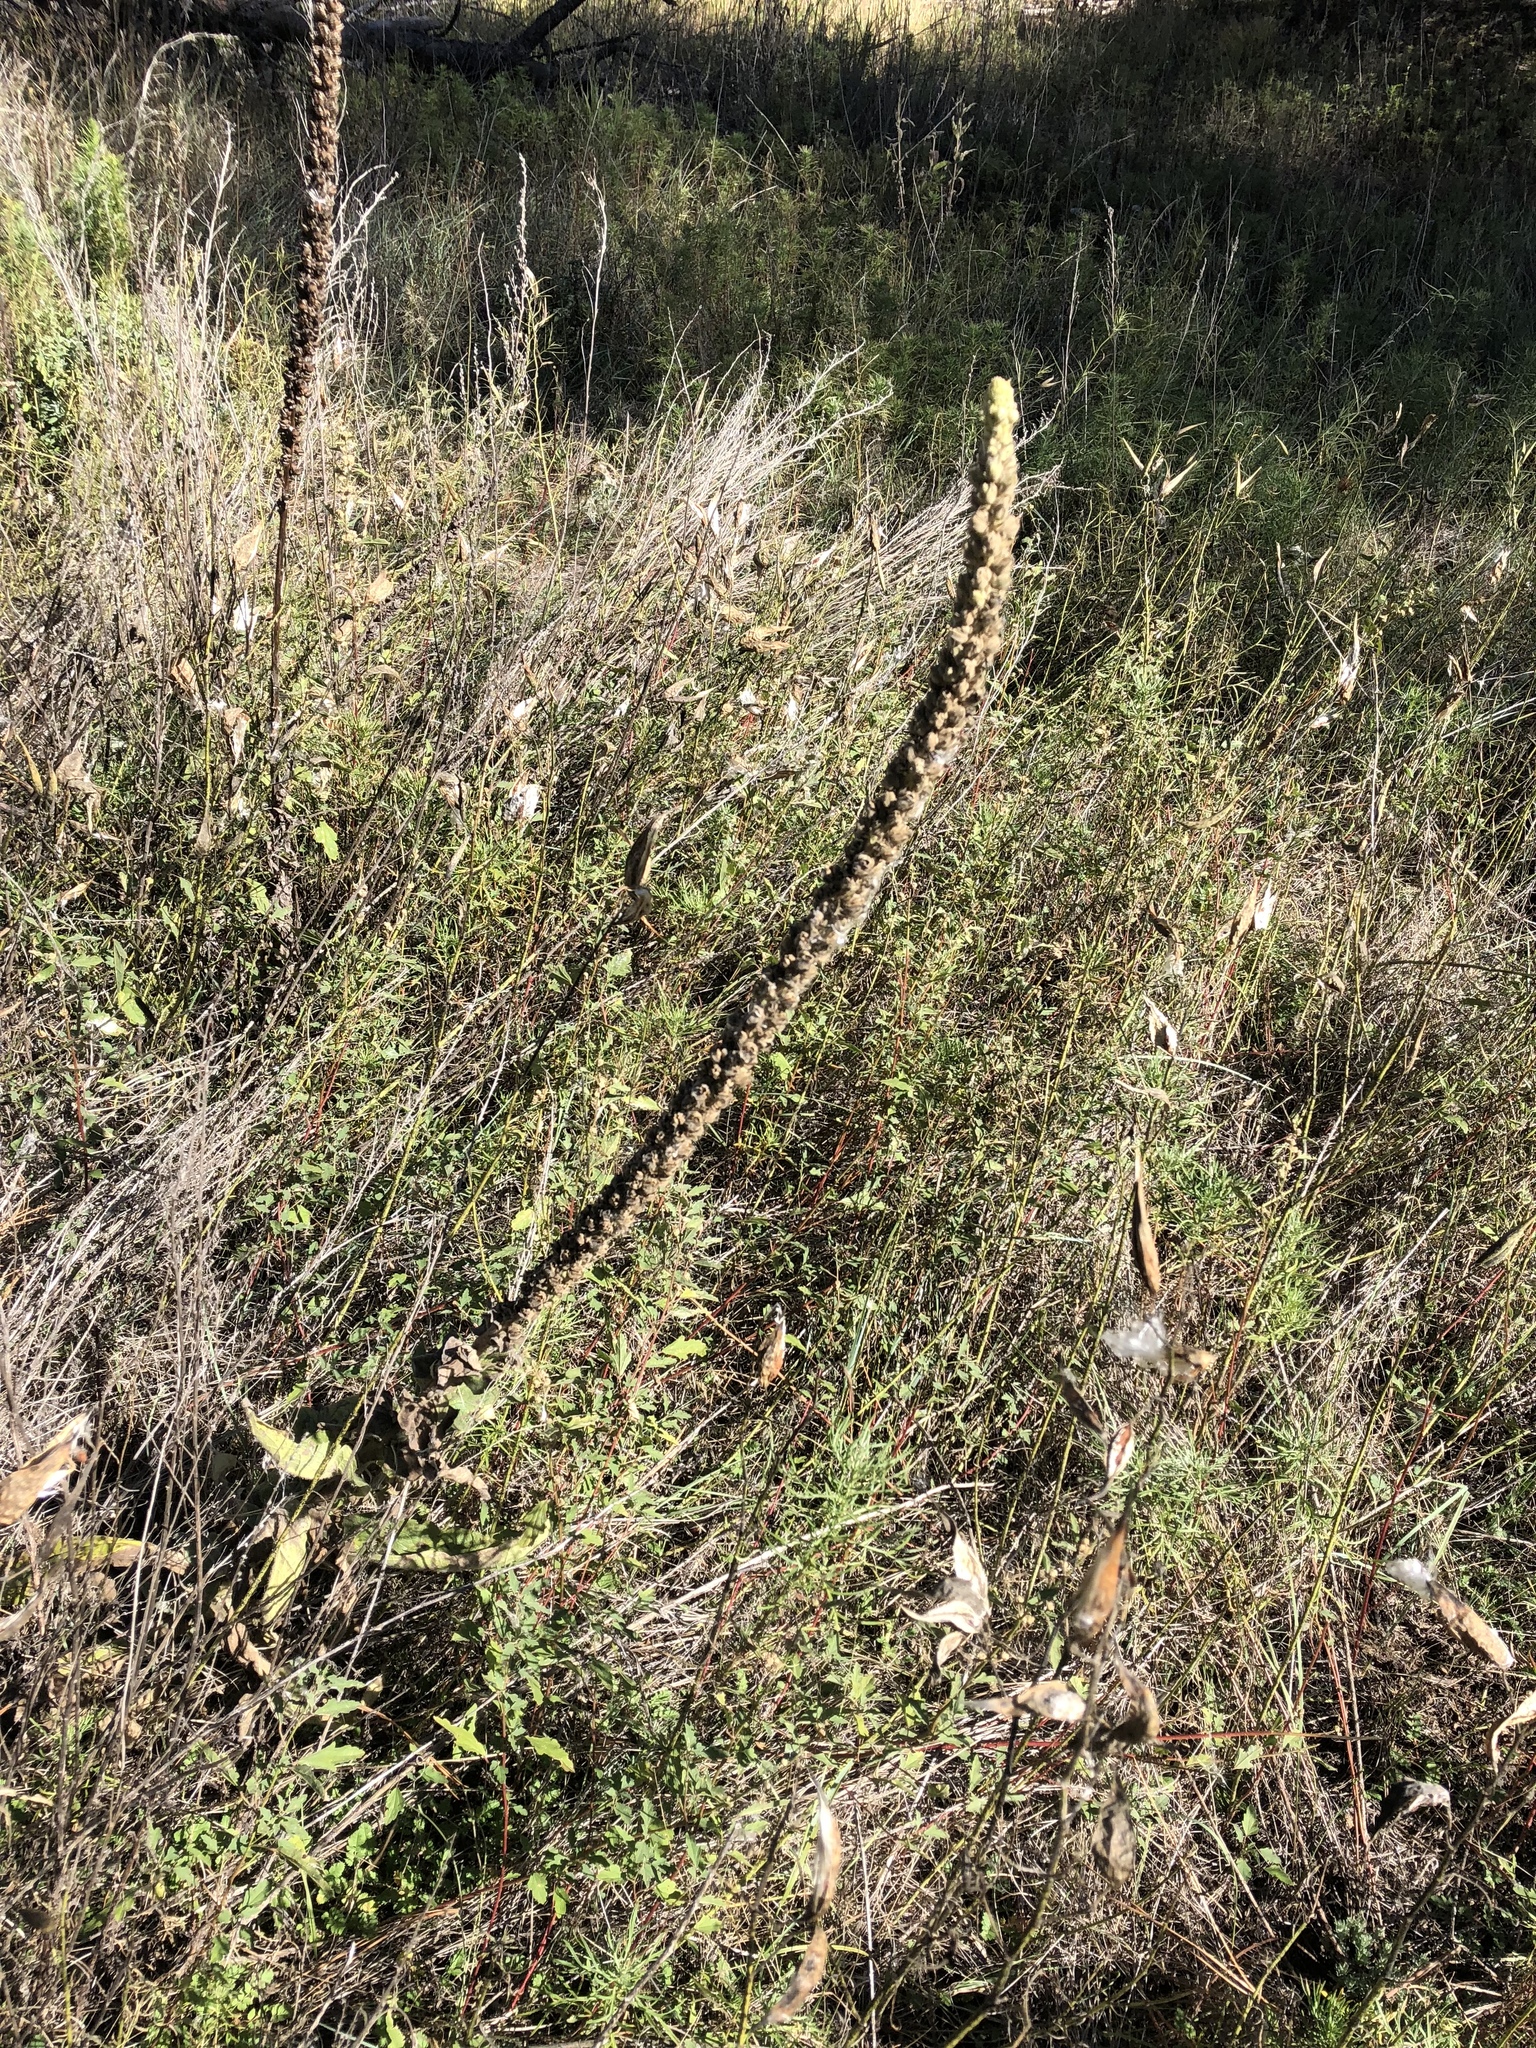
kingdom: Plantae
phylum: Tracheophyta
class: Magnoliopsida
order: Lamiales
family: Scrophulariaceae
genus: Verbascum
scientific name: Verbascum thapsus
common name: Common mullein
